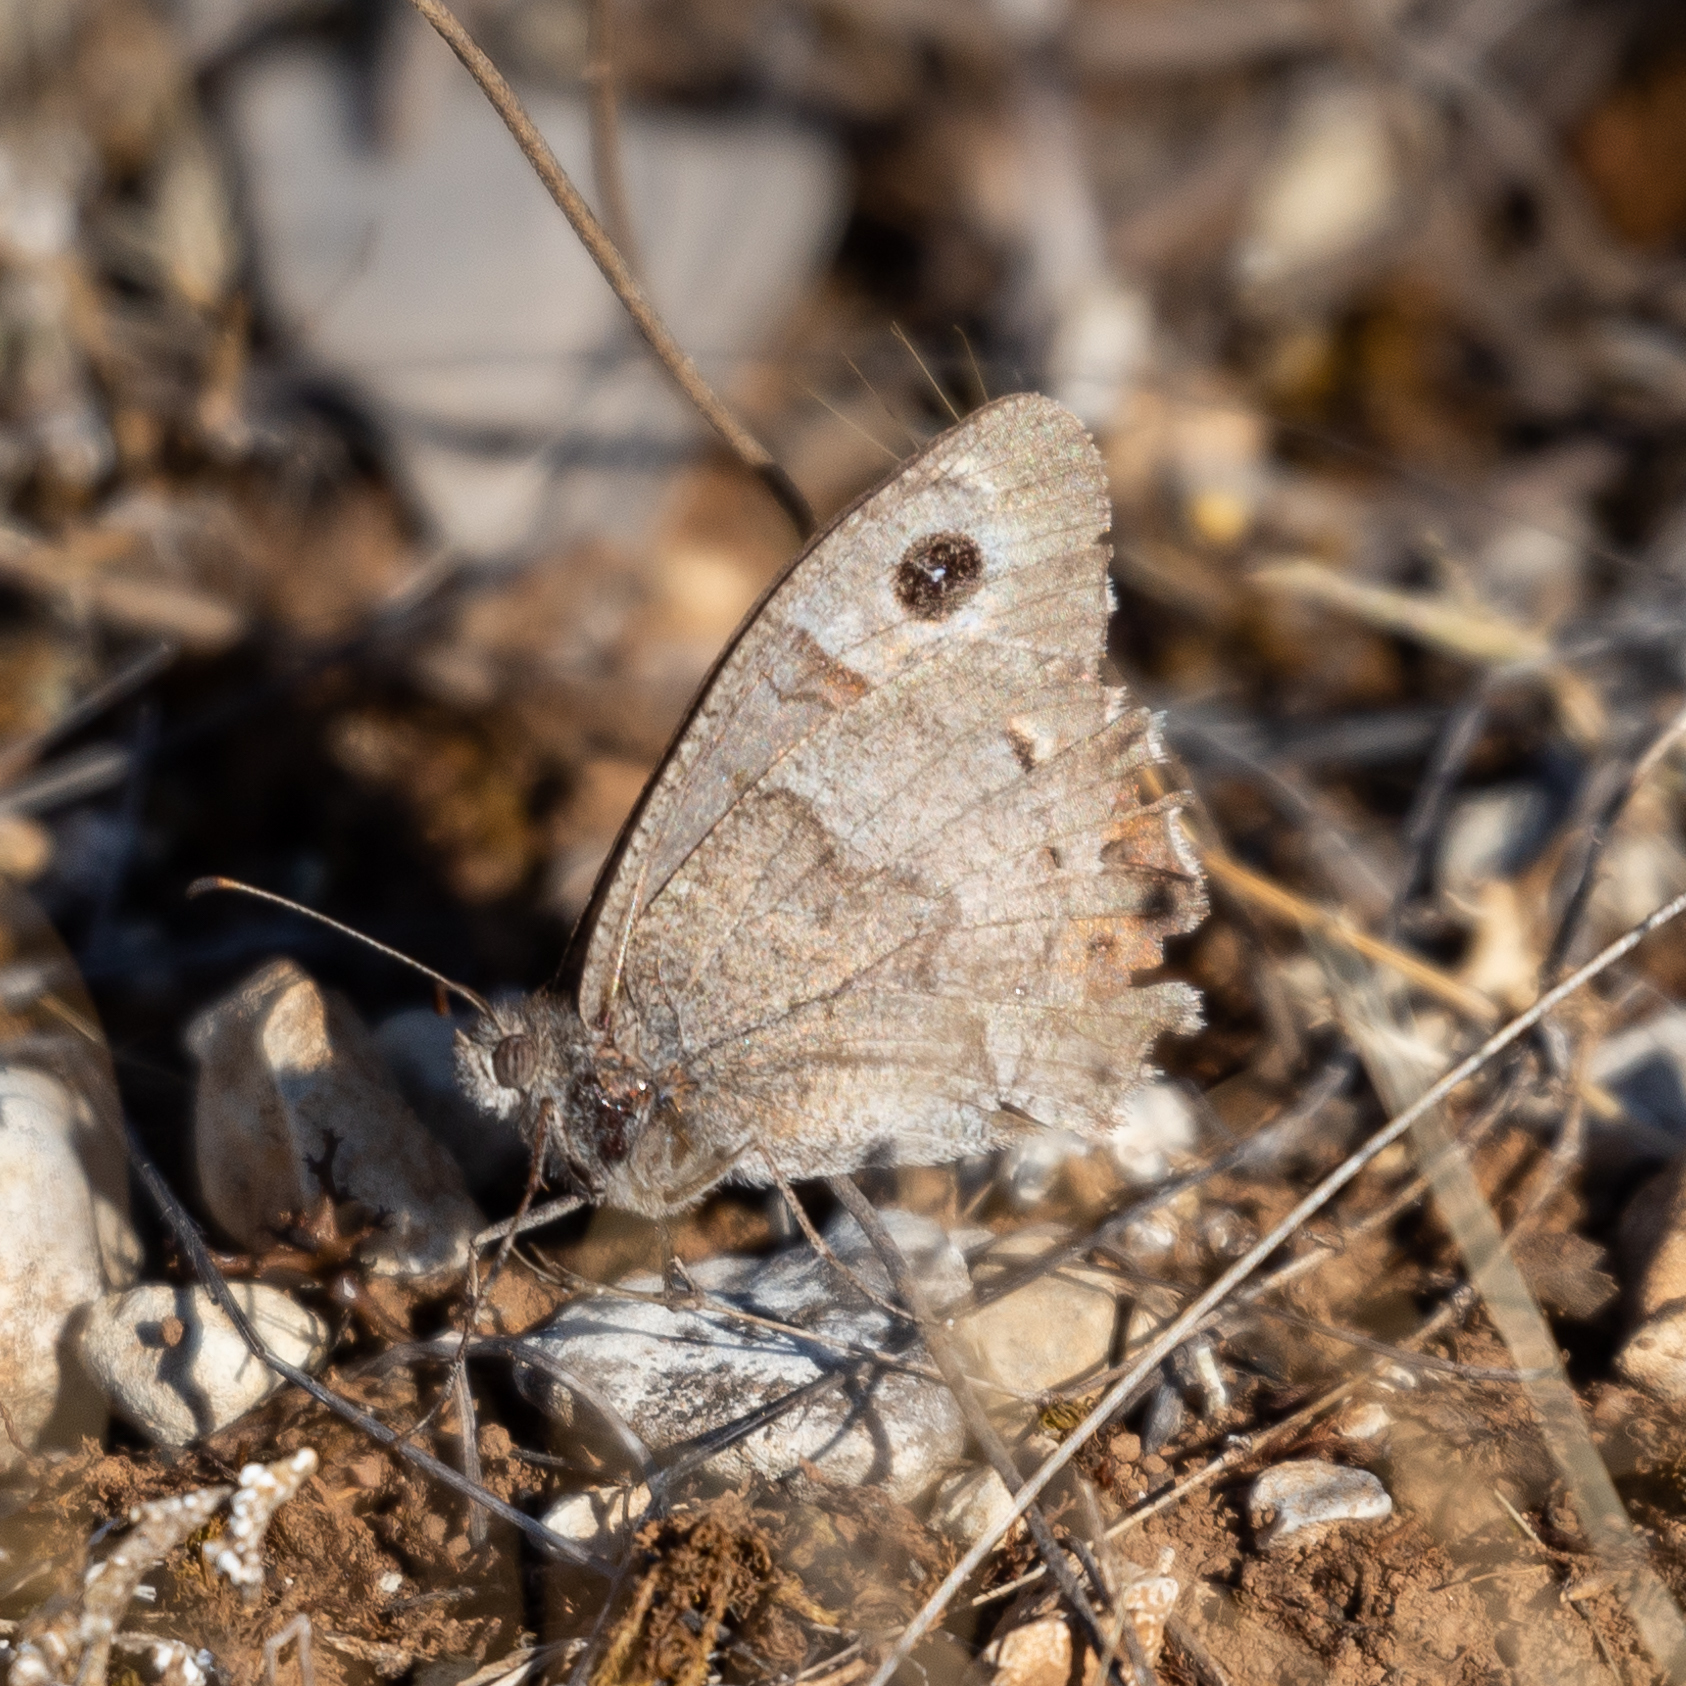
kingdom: Animalia
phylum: Arthropoda
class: Insecta
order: Lepidoptera
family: Nymphalidae
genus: Hipparchia
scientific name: Hipparchia statilinus
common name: Tree grayling
